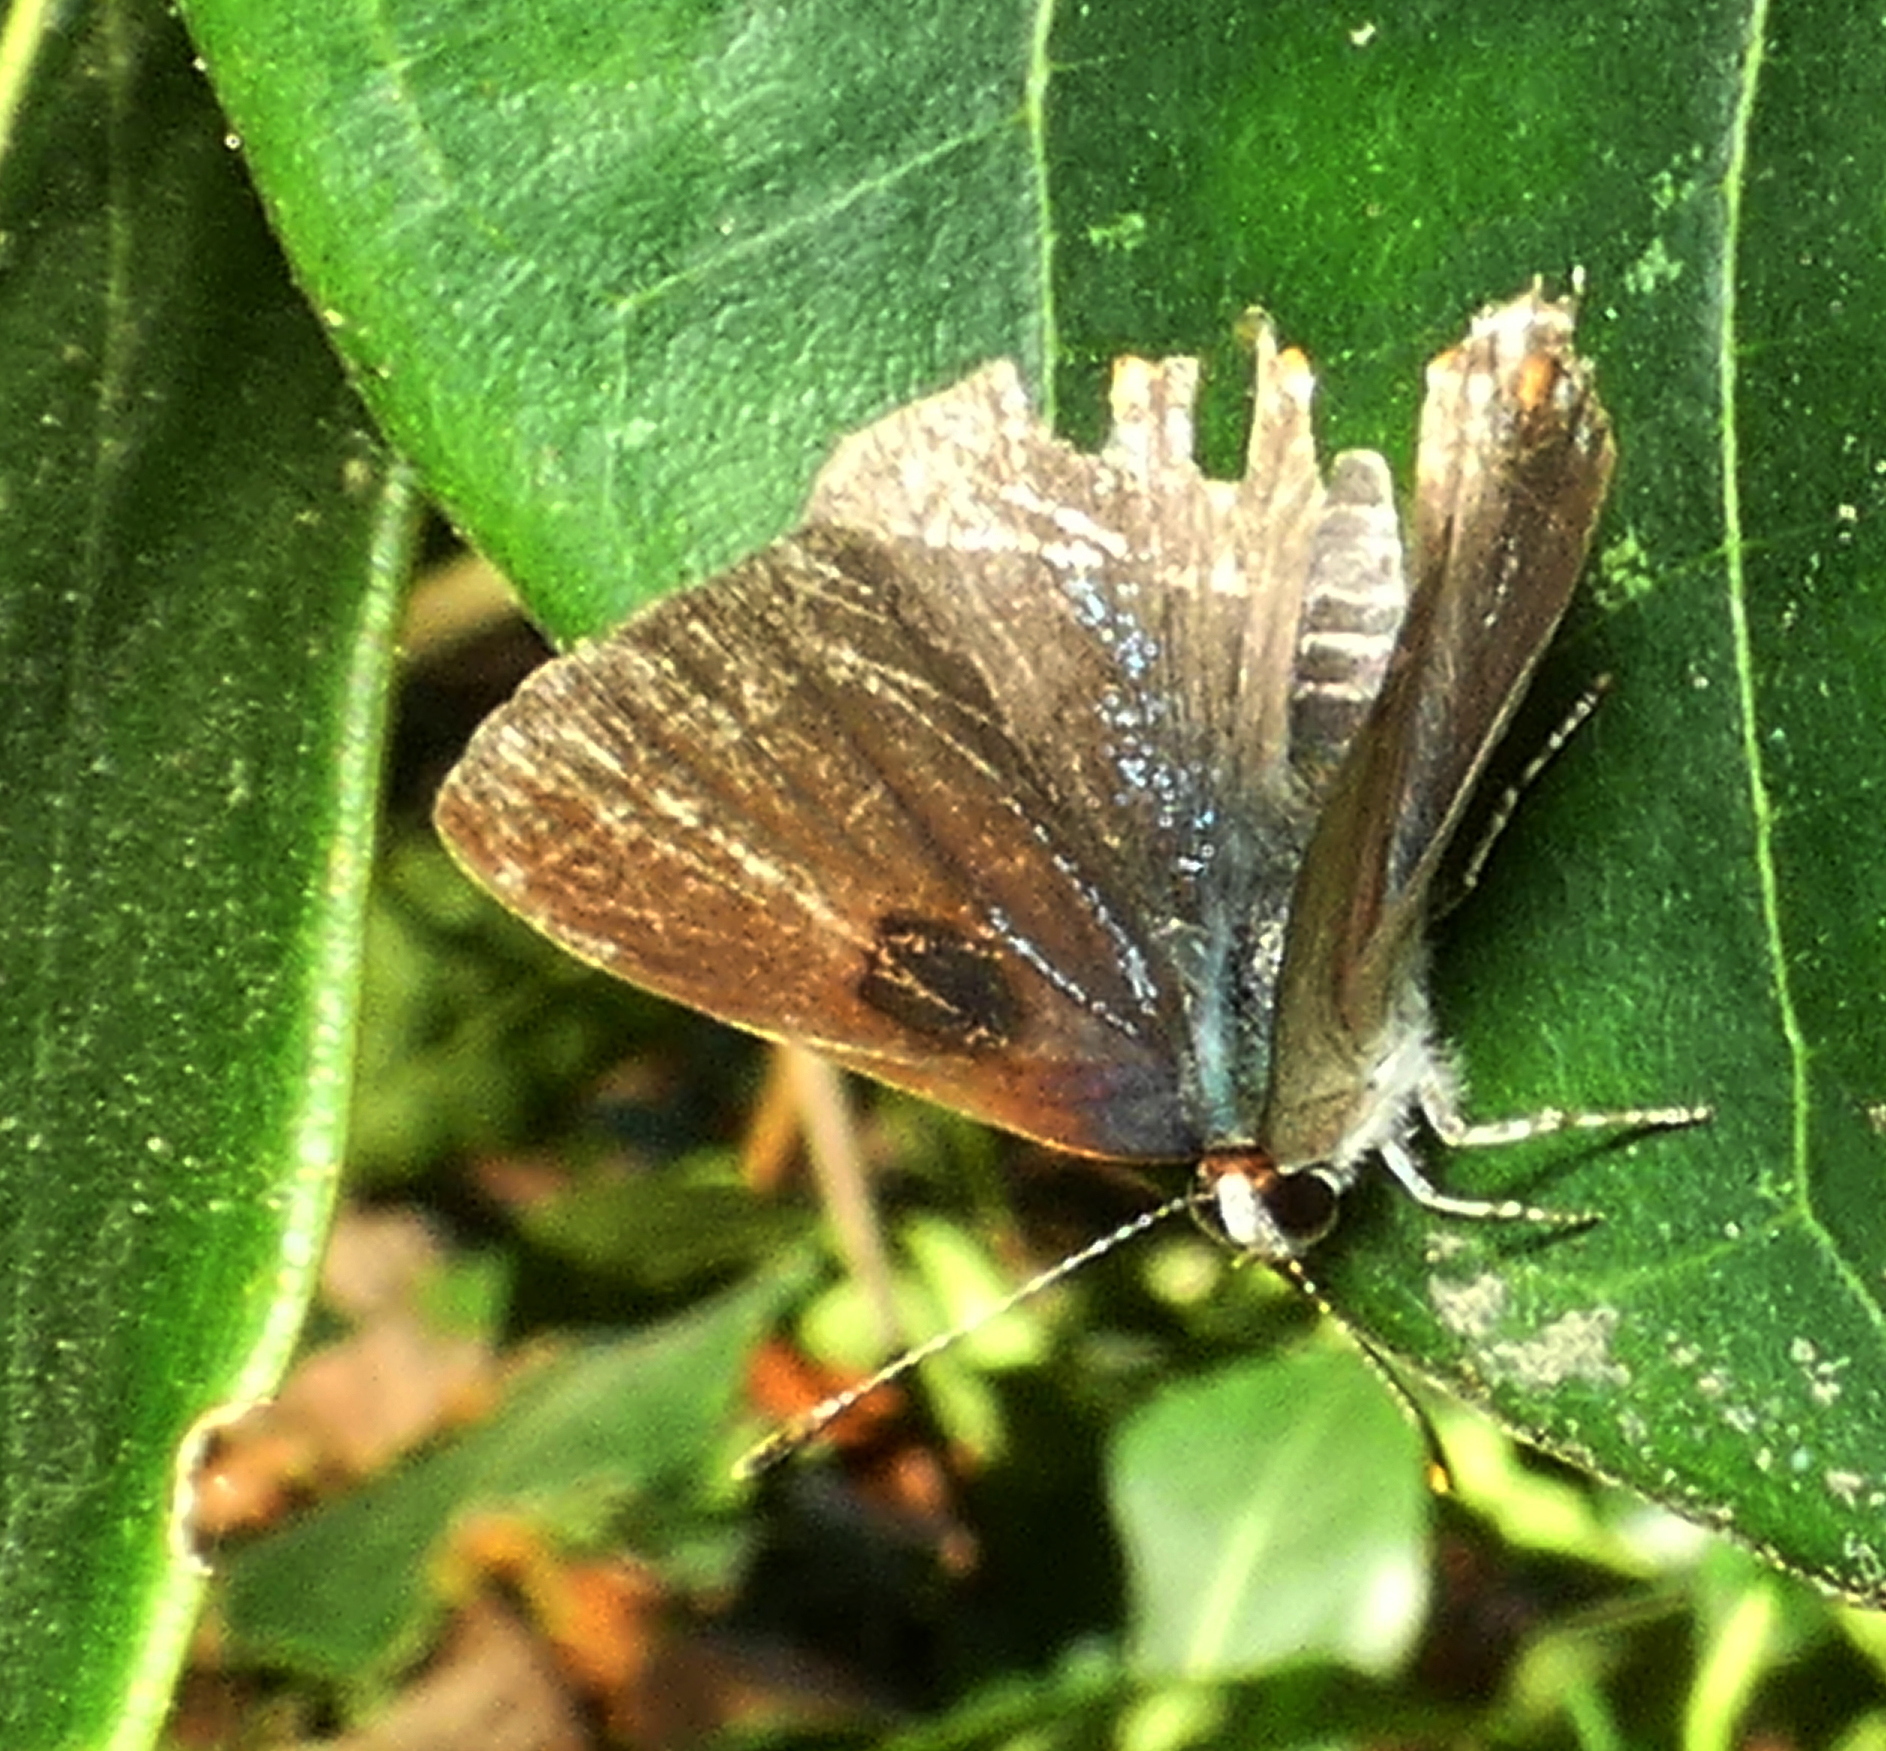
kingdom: Animalia
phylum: Arthropoda
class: Insecta
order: Lepidoptera
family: Lycaenidae
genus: Thecla
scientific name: Thecla megarus
